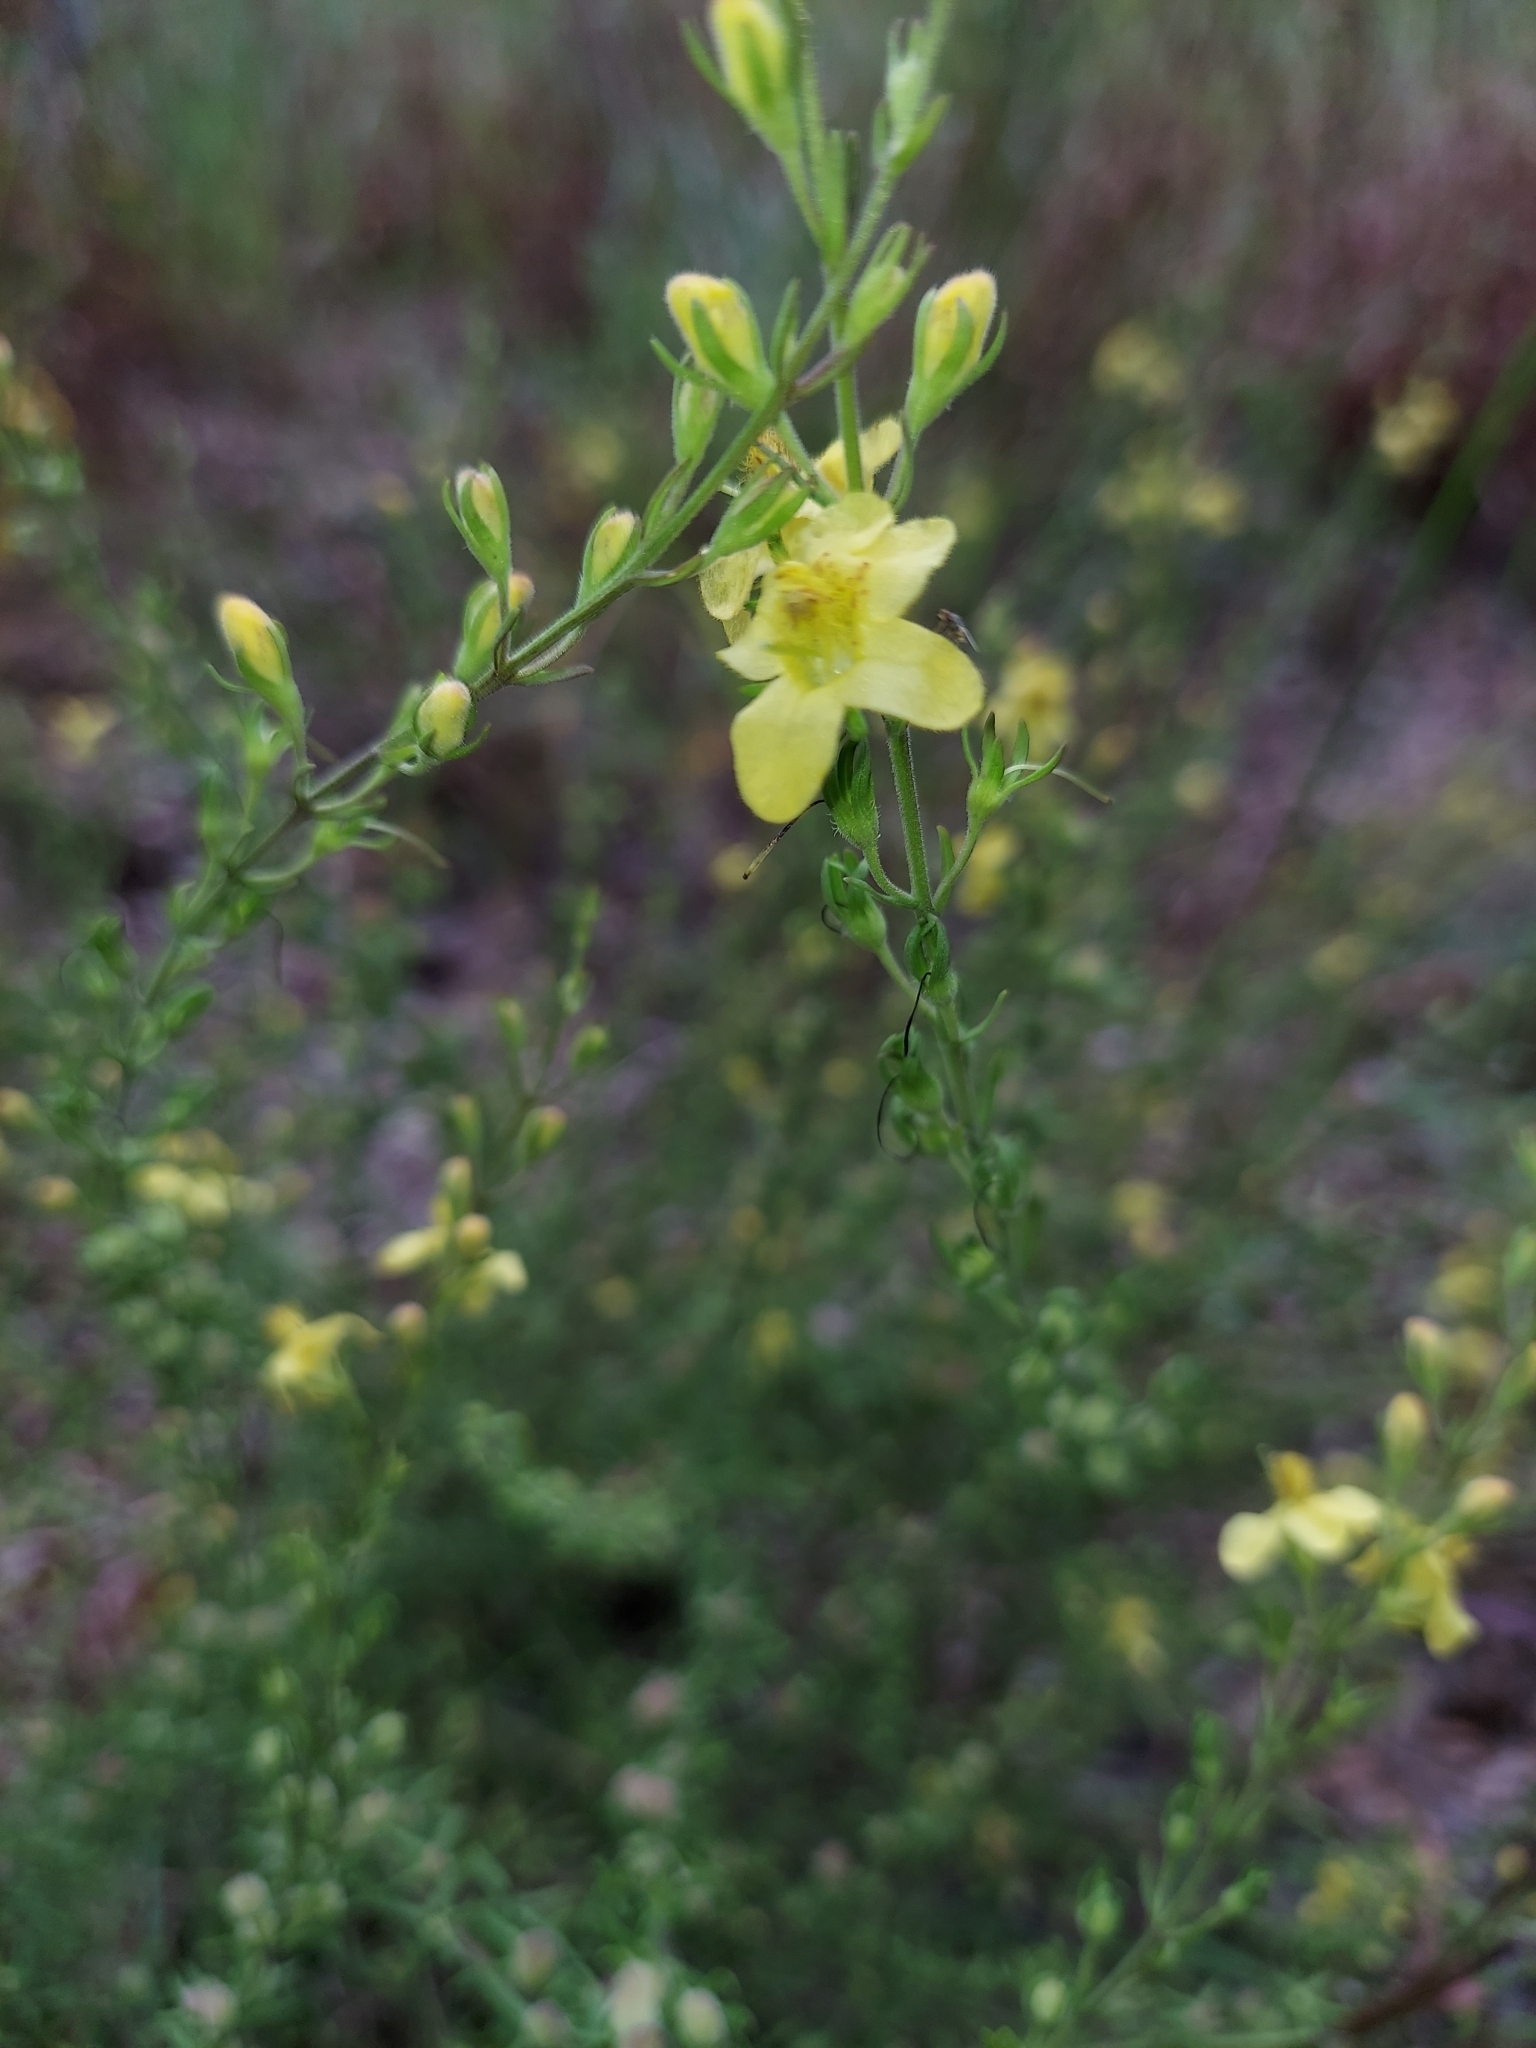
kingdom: Plantae
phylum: Tracheophyta
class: Magnoliopsida
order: Lamiales
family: Orobanchaceae
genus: Seymeria
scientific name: Seymeria pectinata
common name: Piedmont black-senna
